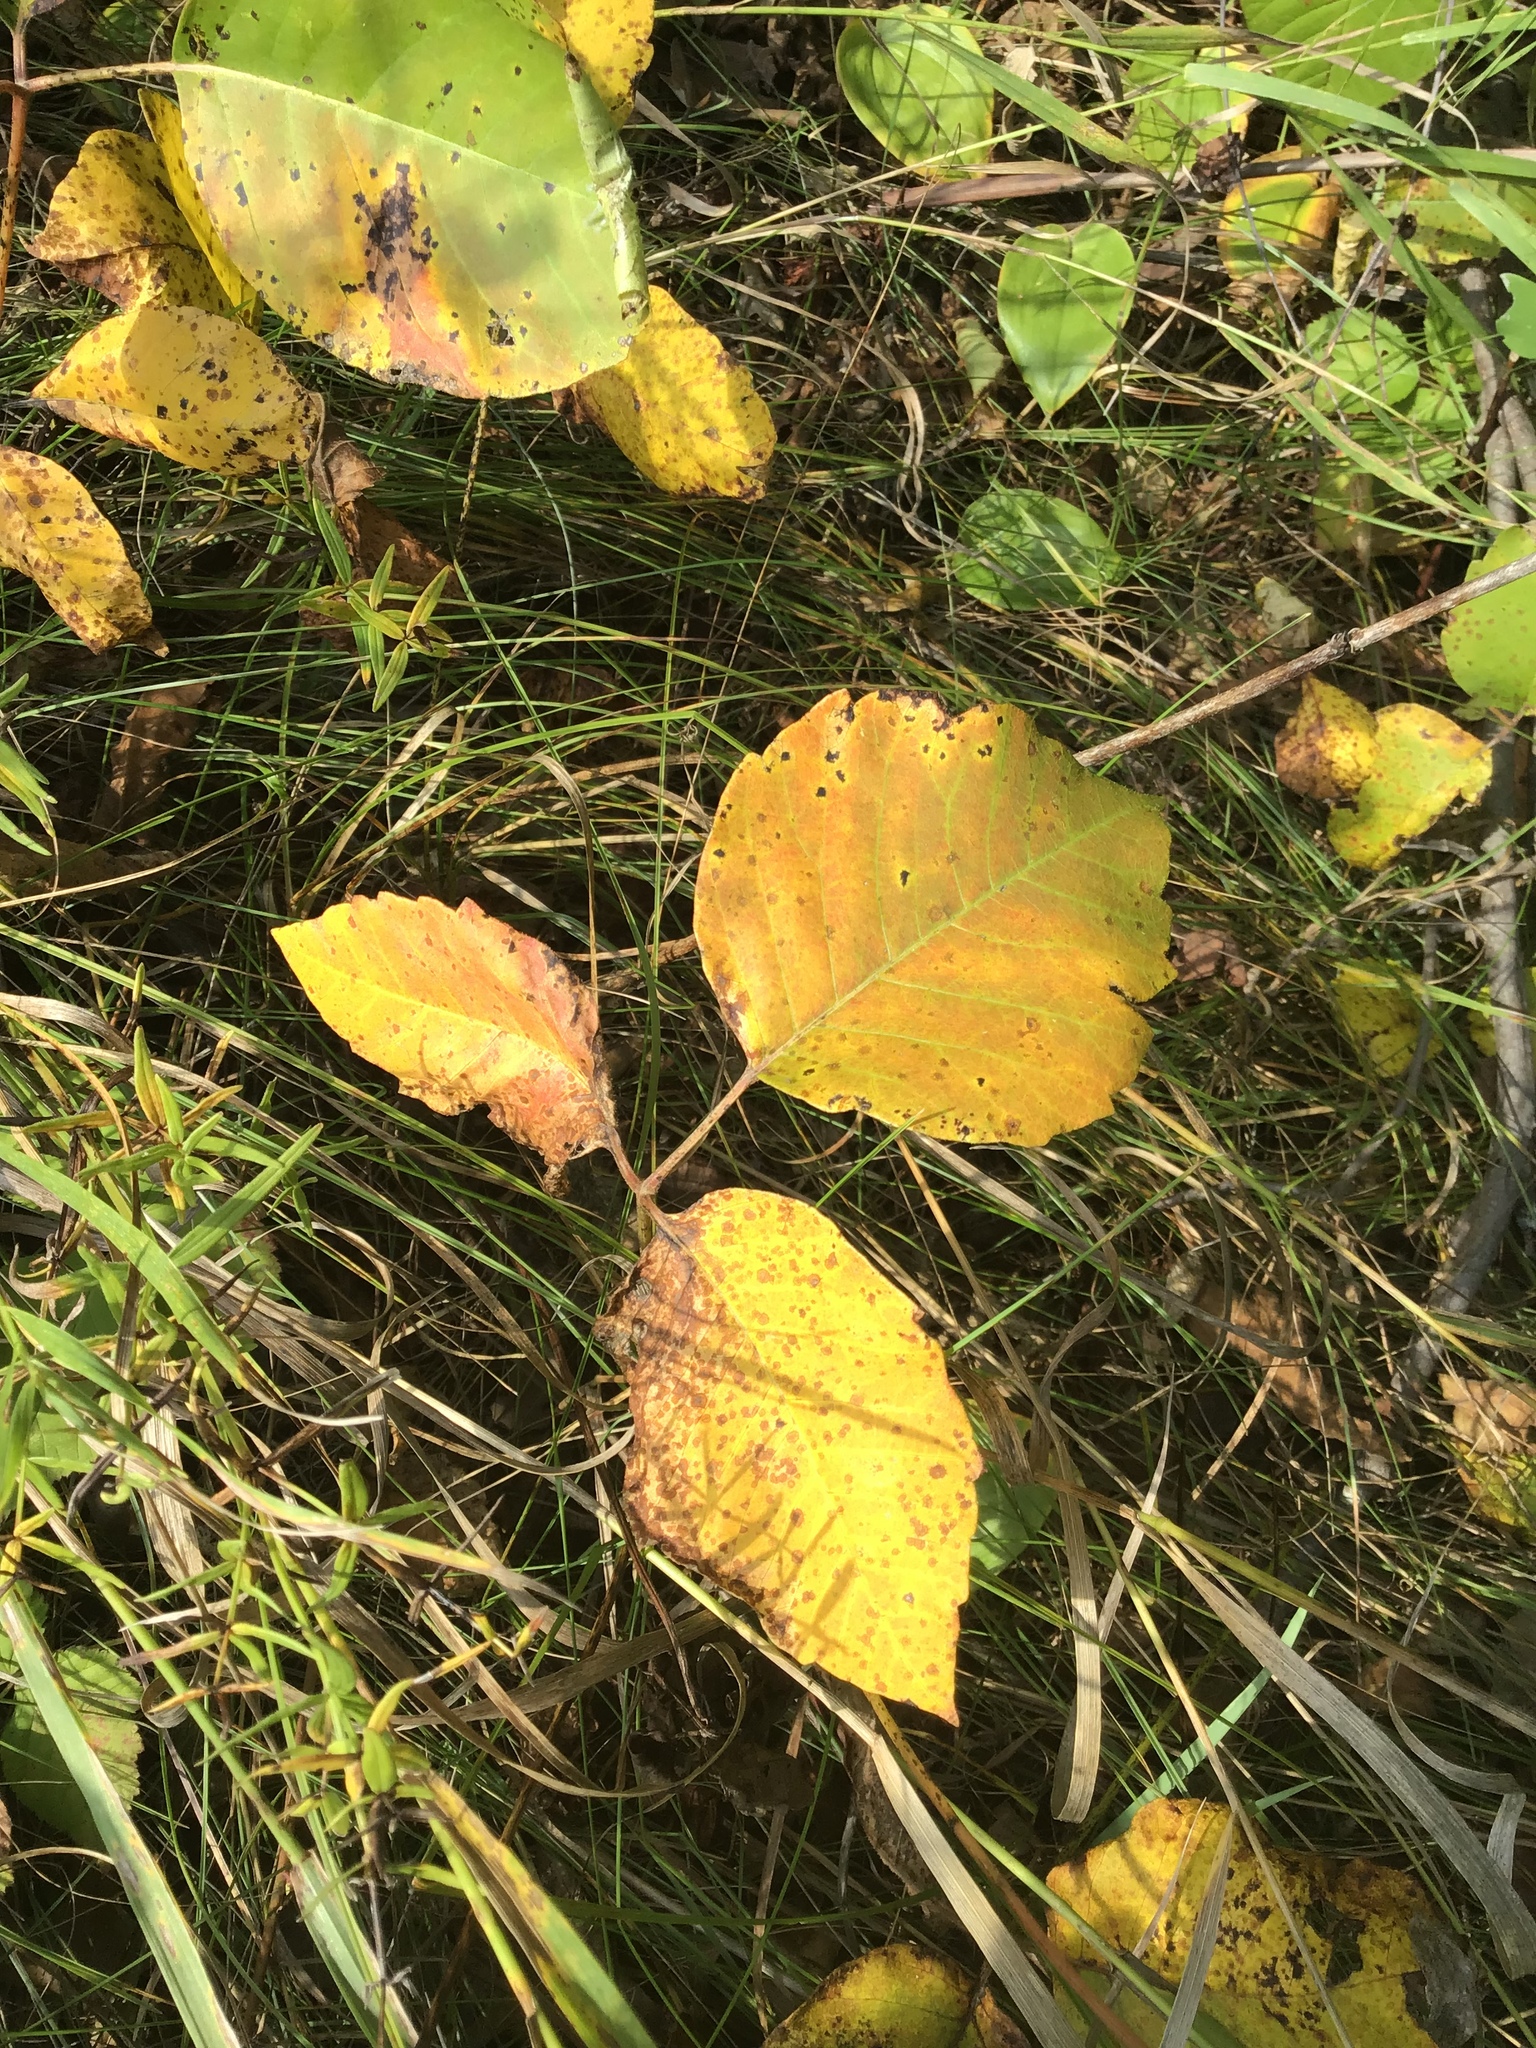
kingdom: Plantae
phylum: Tracheophyta
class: Magnoliopsida
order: Sapindales
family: Anacardiaceae
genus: Toxicodendron
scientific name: Toxicodendron rydbergii
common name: Rydberg's poison-ivy
